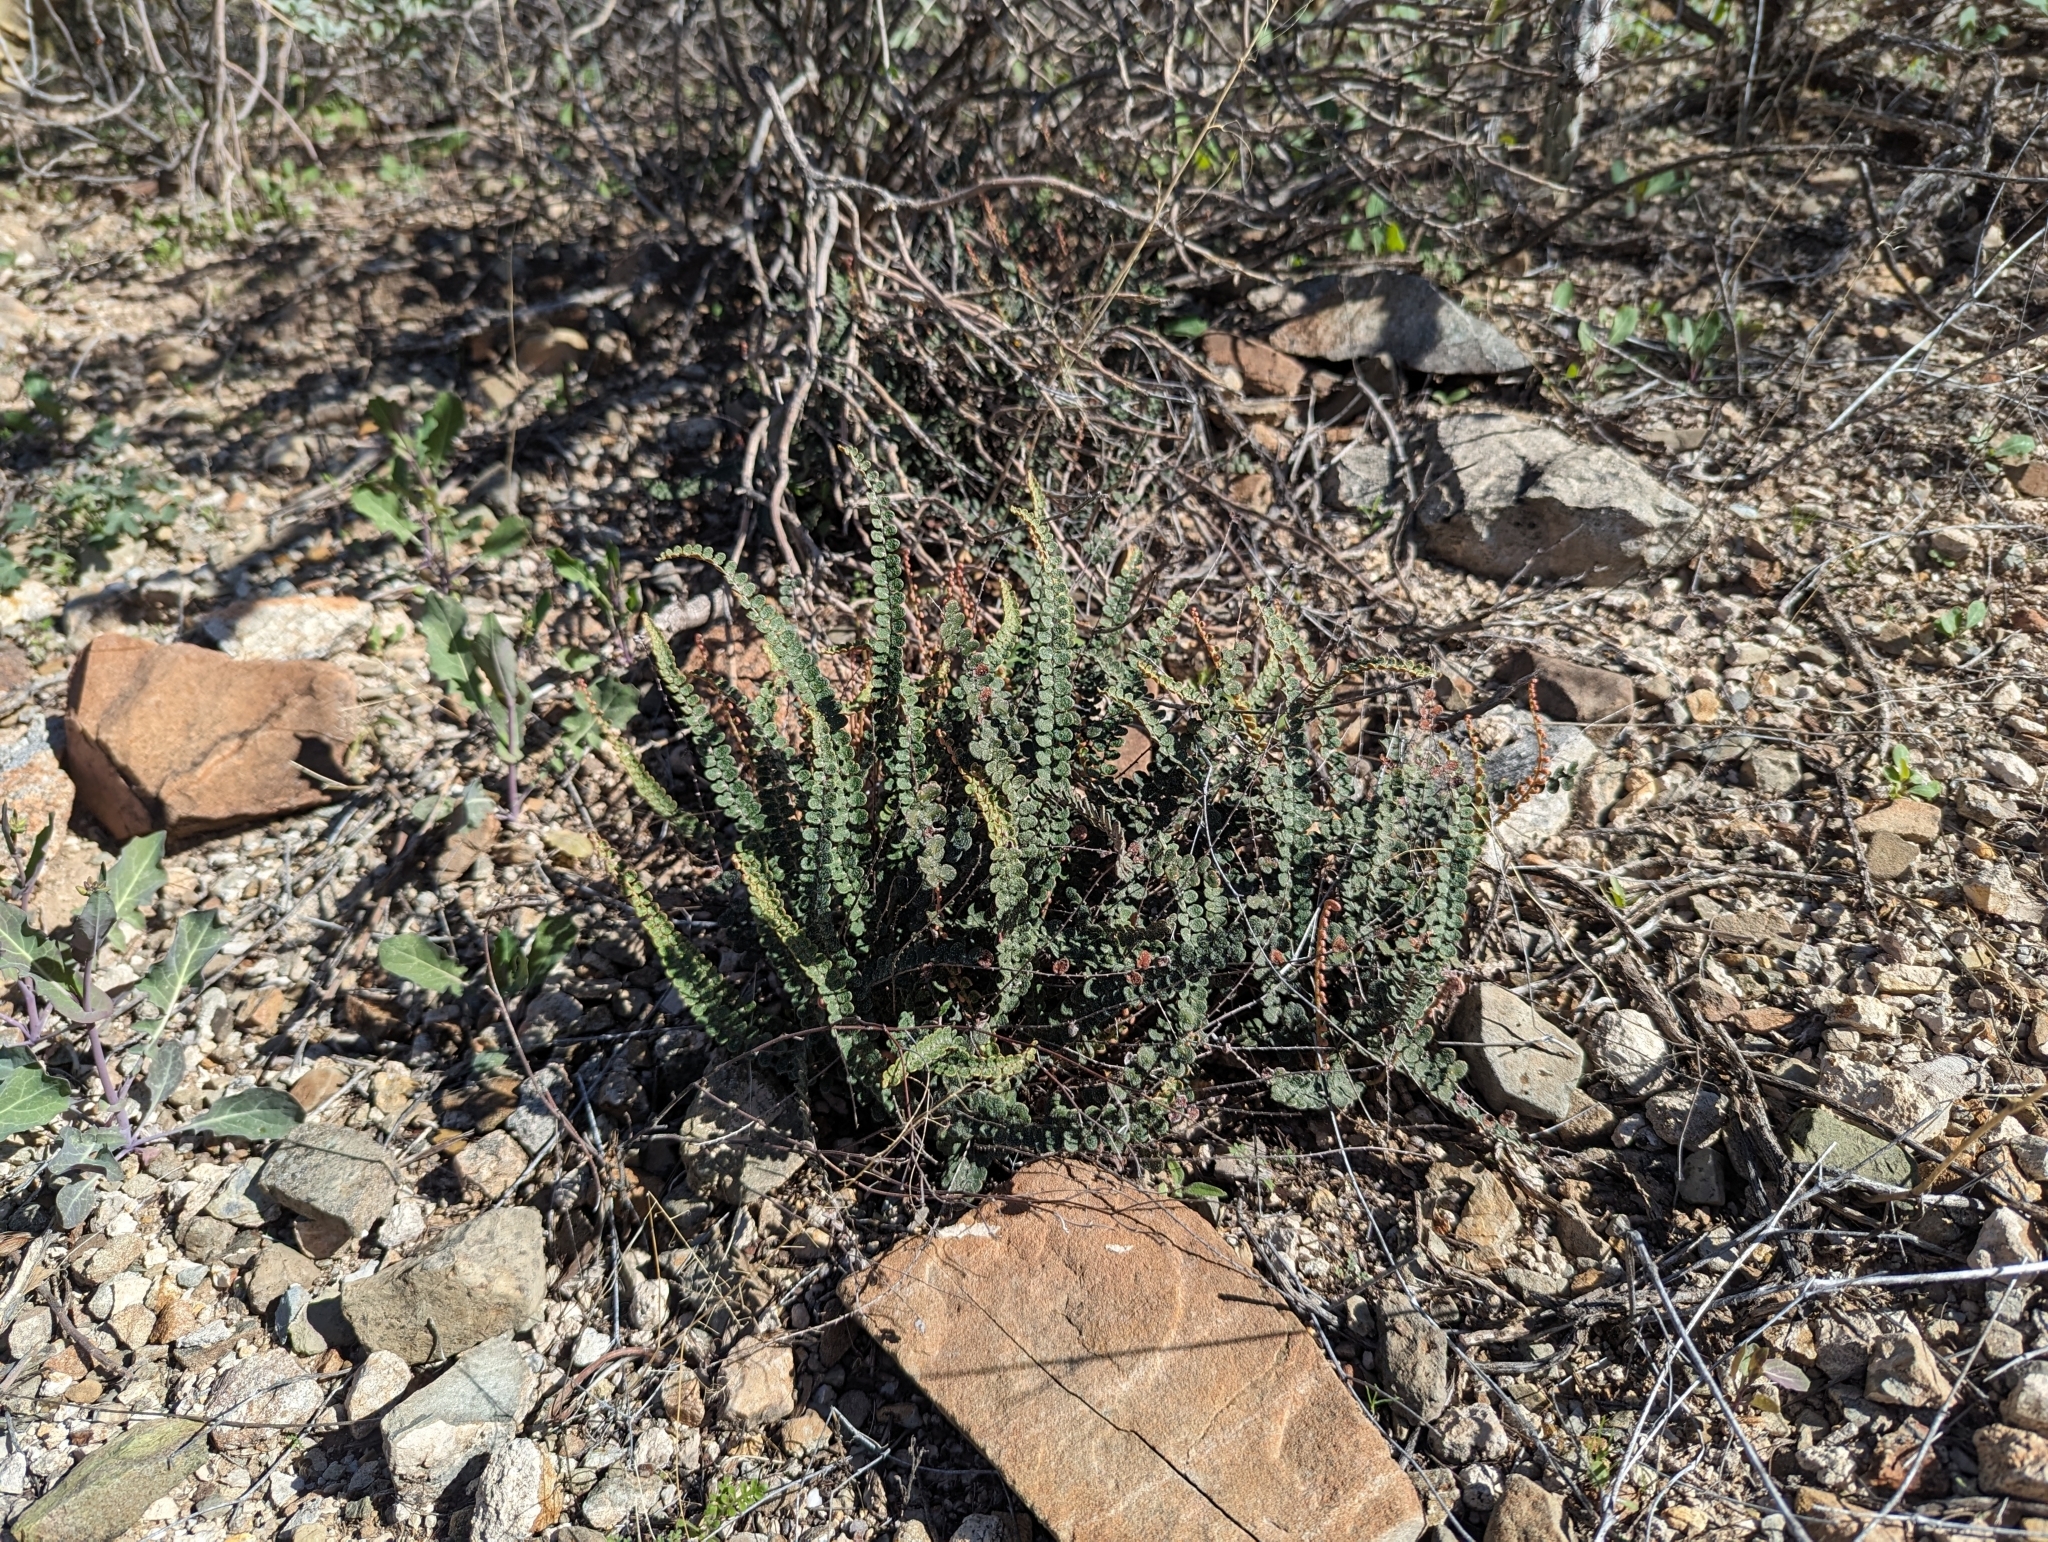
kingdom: Plantae
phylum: Tracheophyta
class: Polypodiopsida
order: Polypodiales
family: Pteridaceae
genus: Astrolepis
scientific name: Astrolepis cochisensis
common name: Scaly cloak fern
